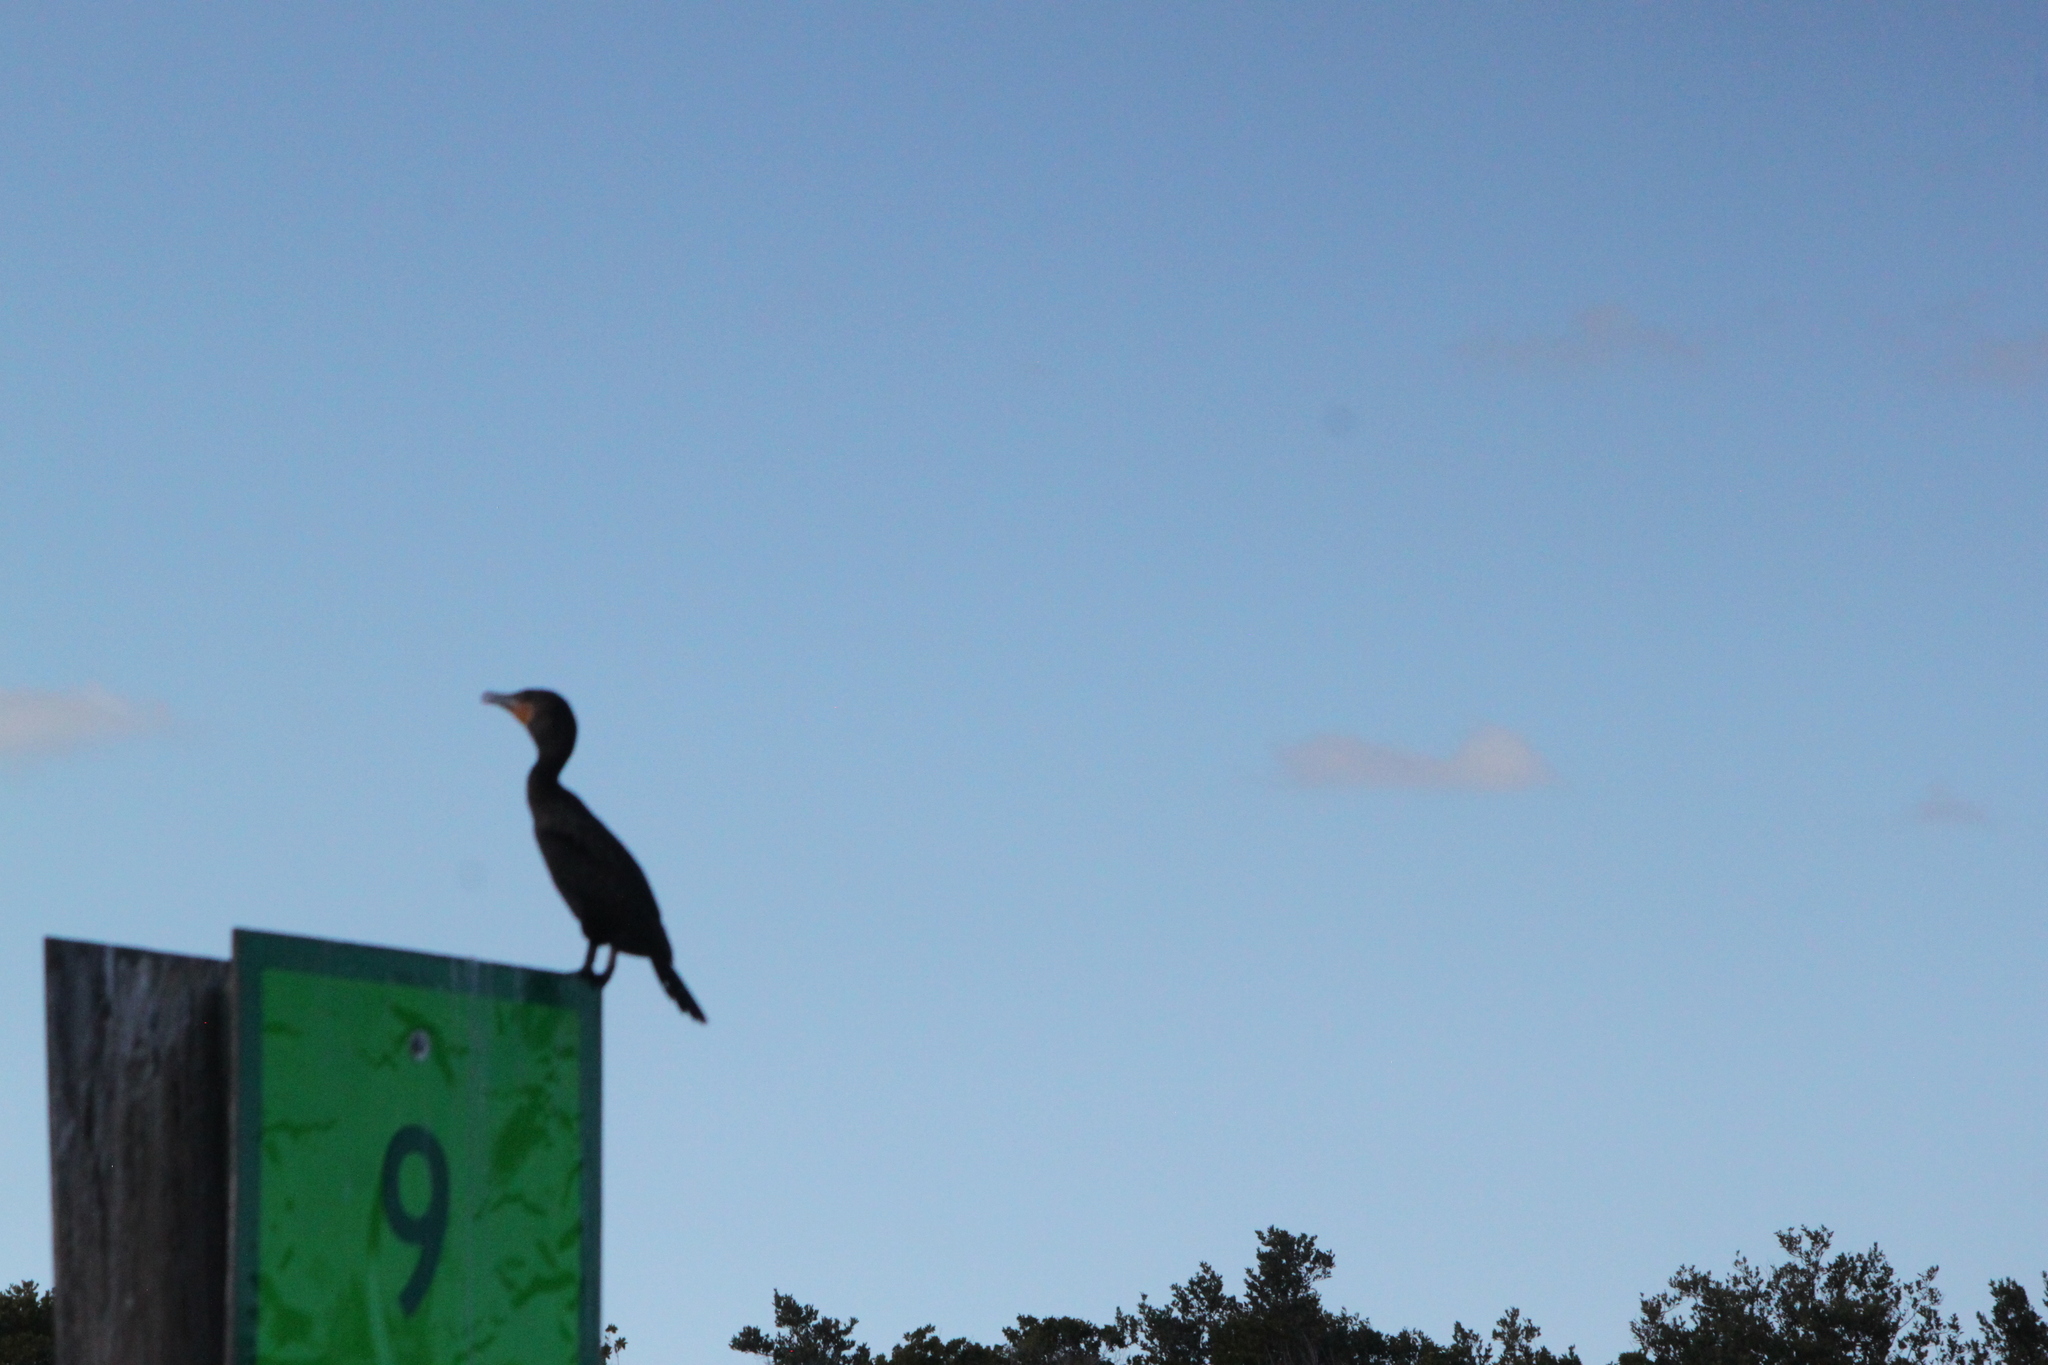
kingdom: Animalia
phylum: Chordata
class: Aves
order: Suliformes
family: Phalacrocoracidae
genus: Phalacrocorax
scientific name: Phalacrocorax auritus
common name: Double-crested cormorant
